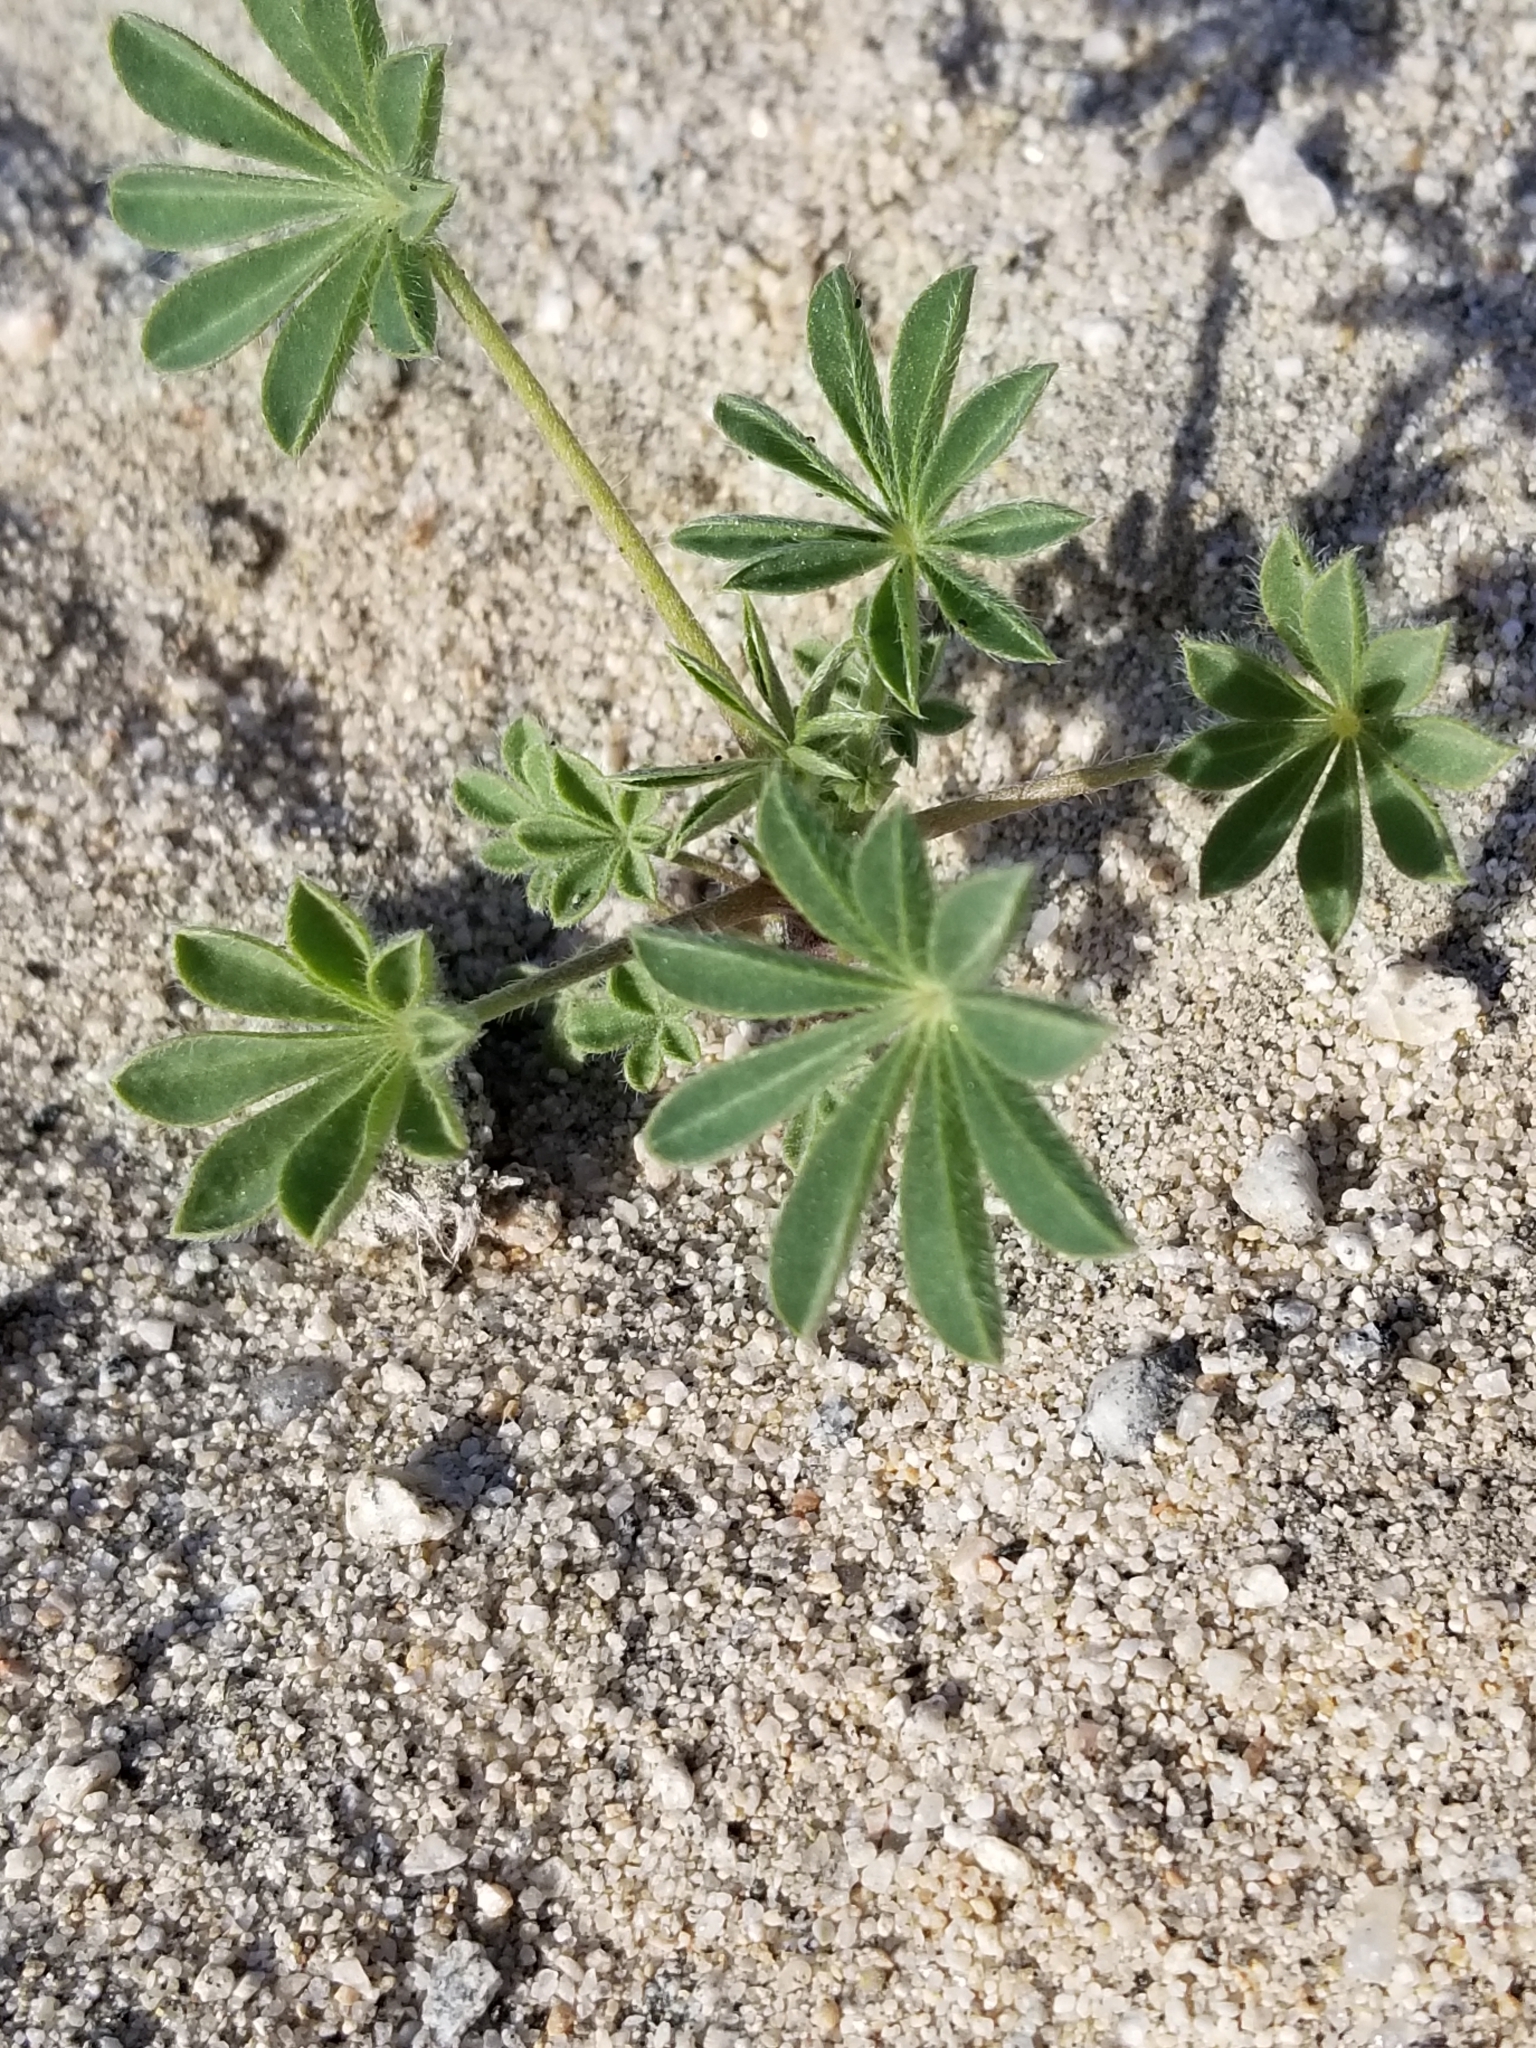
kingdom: Plantae
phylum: Tracheophyta
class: Magnoliopsida
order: Fabales
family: Fabaceae
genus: Lupinus
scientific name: Lupinus arizonicus
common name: Arizona lupine
